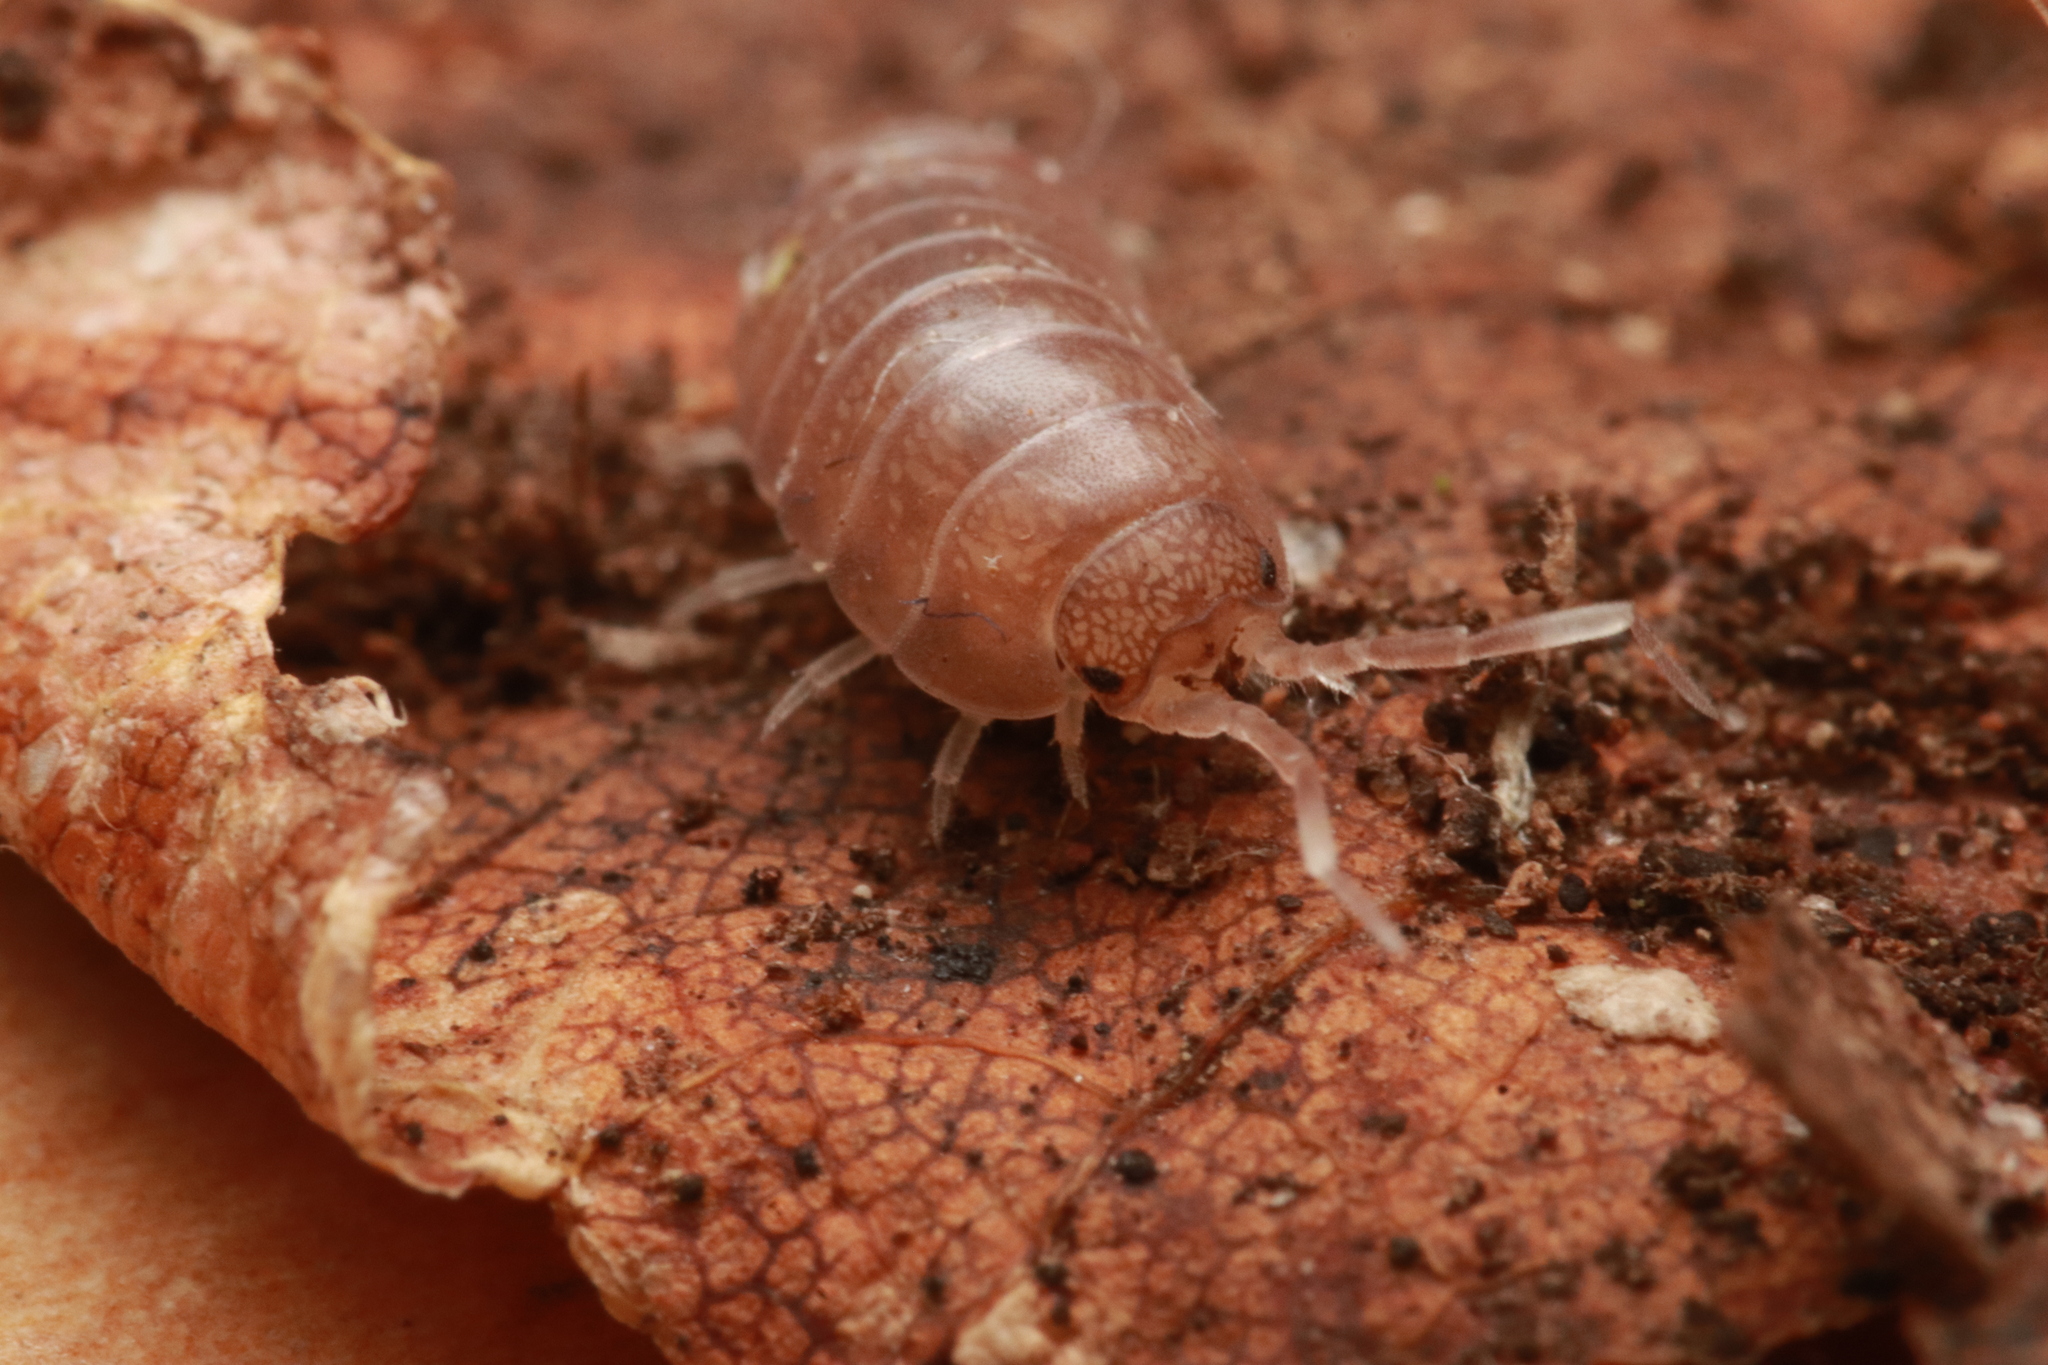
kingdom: Animalia
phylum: Arthropoda
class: Malacostraca
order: Isopoda
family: Cylisticidae
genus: Cylisticus
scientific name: Cylisticus esterelanus
